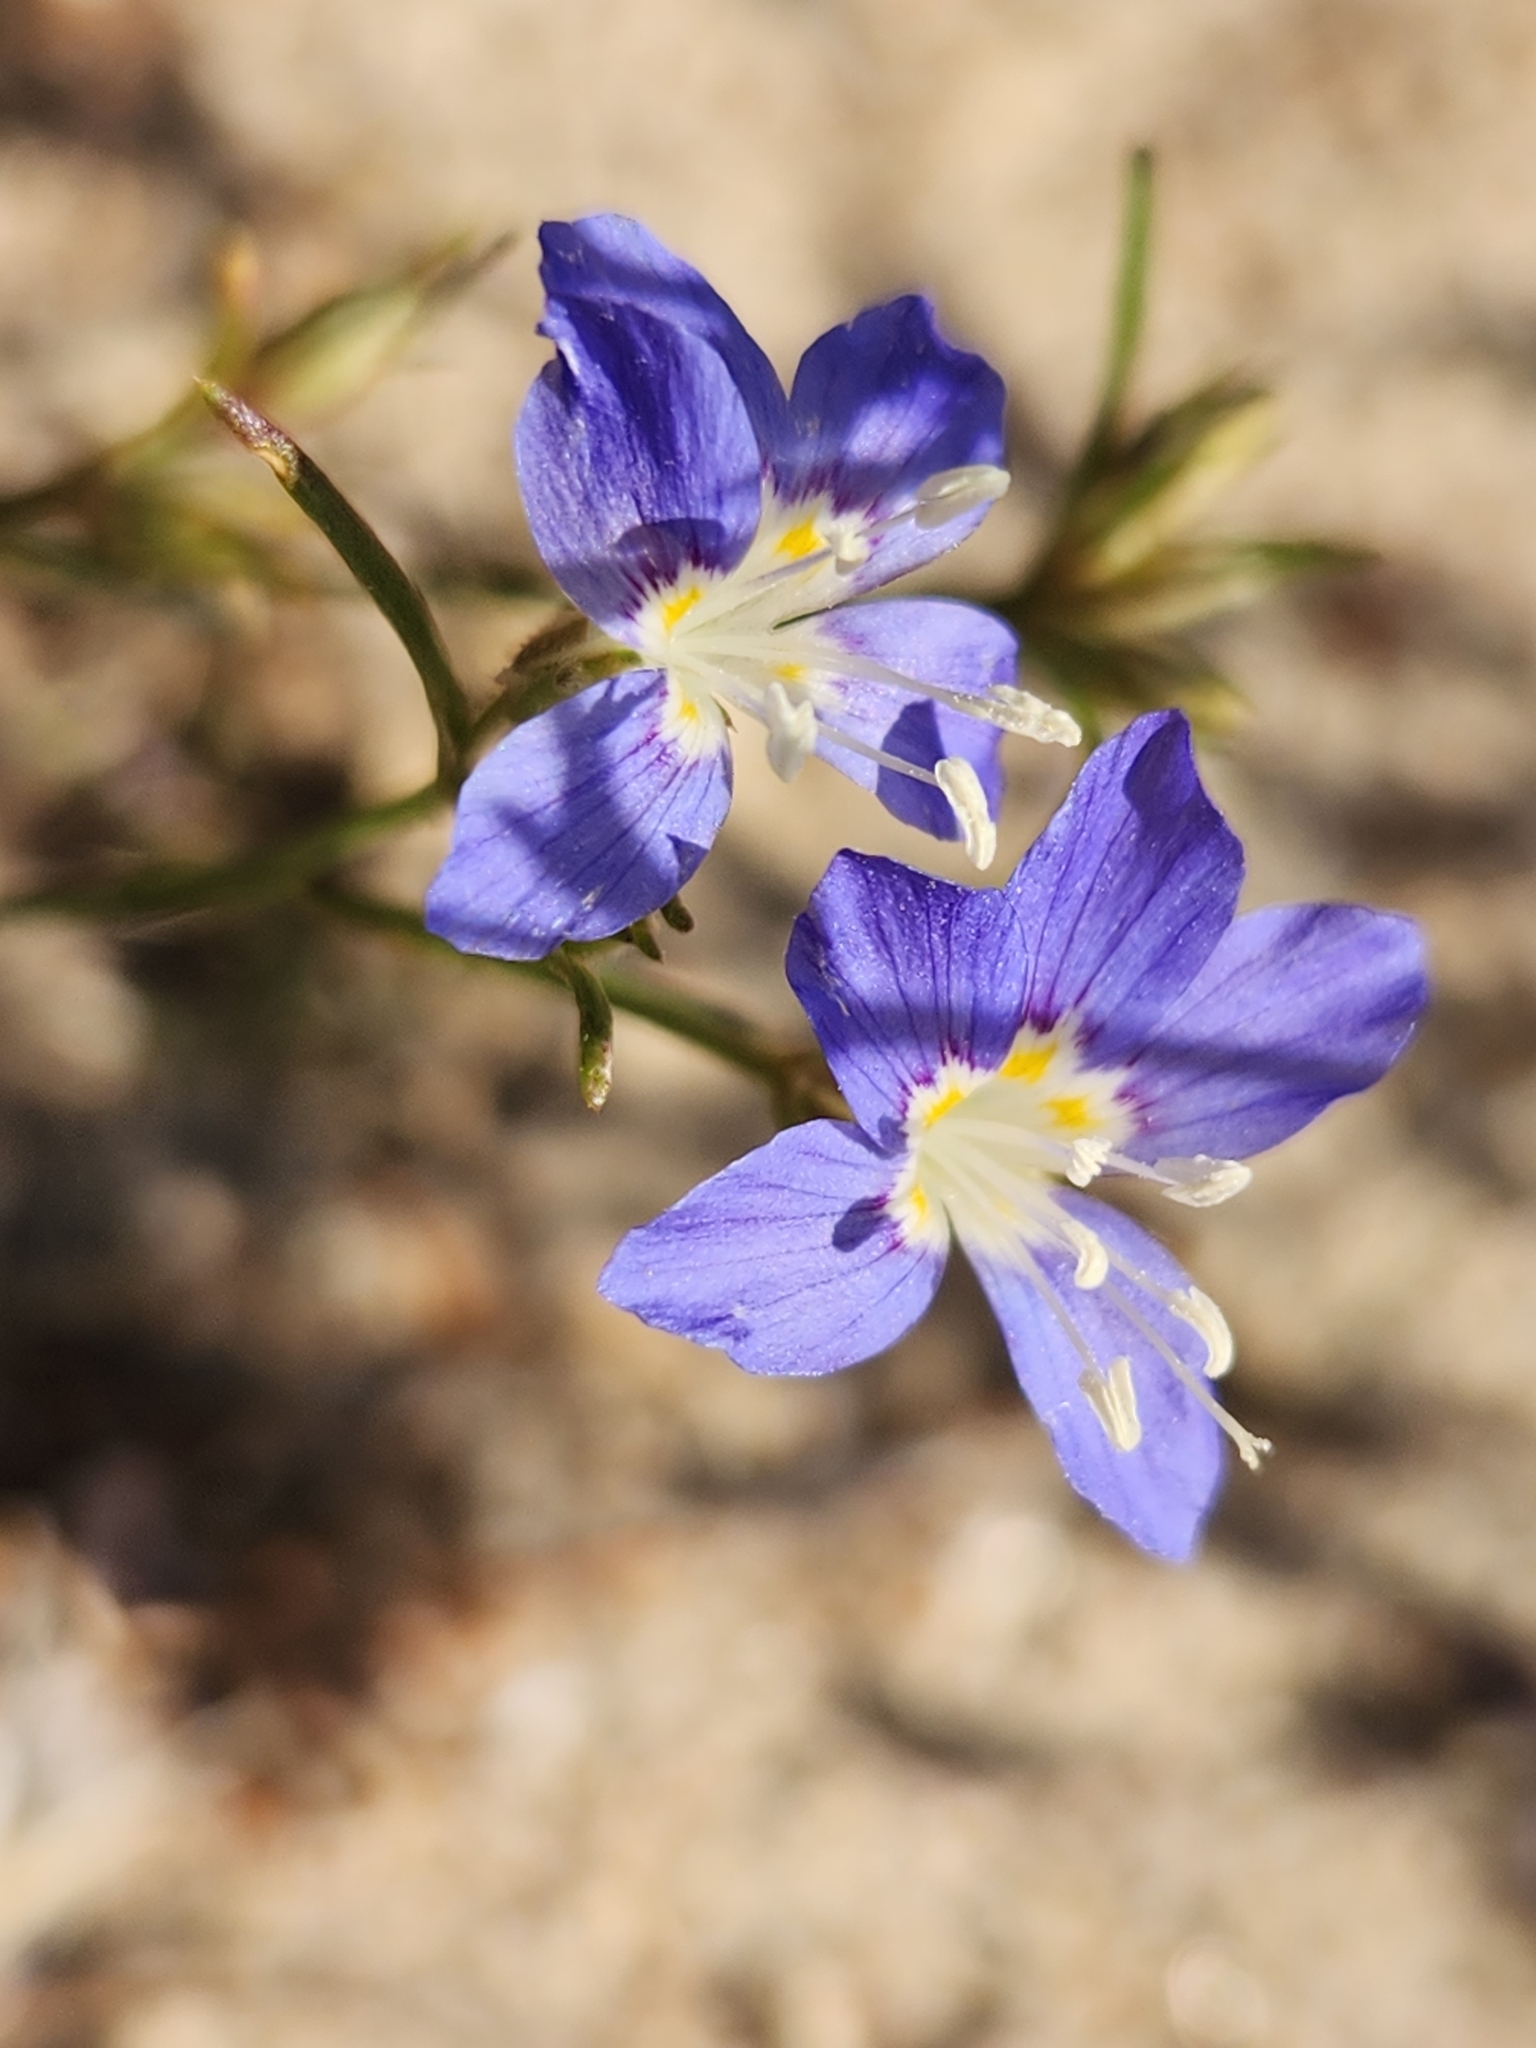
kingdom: Plantae
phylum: Tracheophyta
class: Magnoliopsida
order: Ericales
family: Polemoniaceae
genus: Eriastrum
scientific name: Eriastrum sapphirinum
